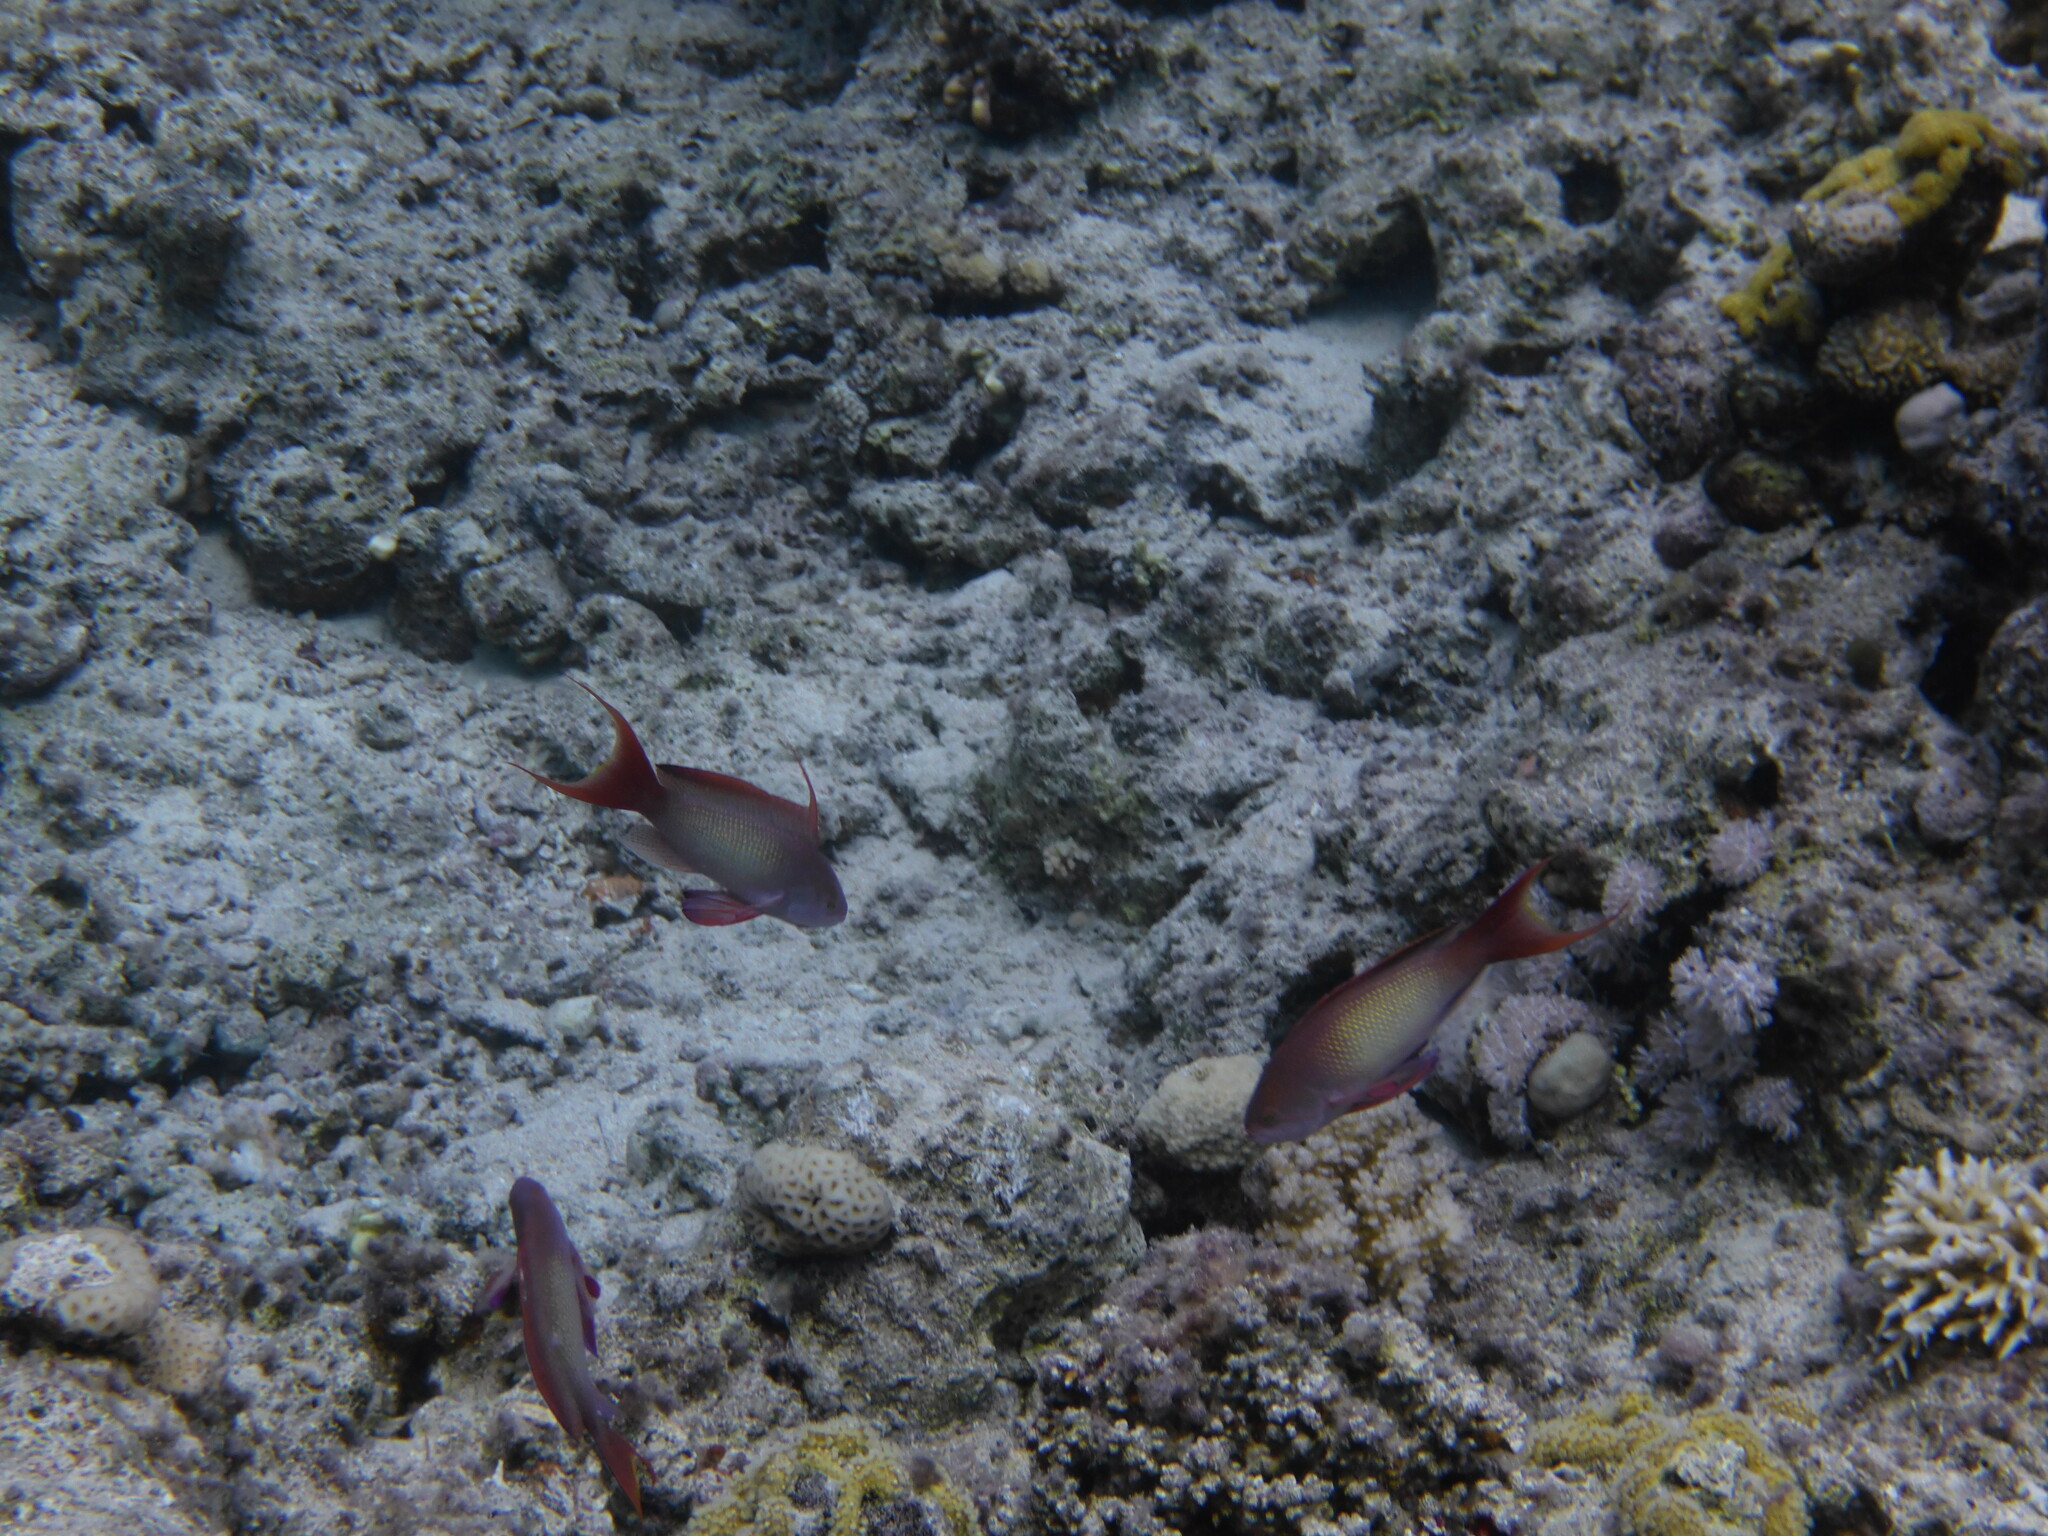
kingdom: Animalia
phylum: Chordata
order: Perciformes
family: Serranidae
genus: Pseudanthias
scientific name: Pseudanthias squamipinnis
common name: Scalefin anthias
